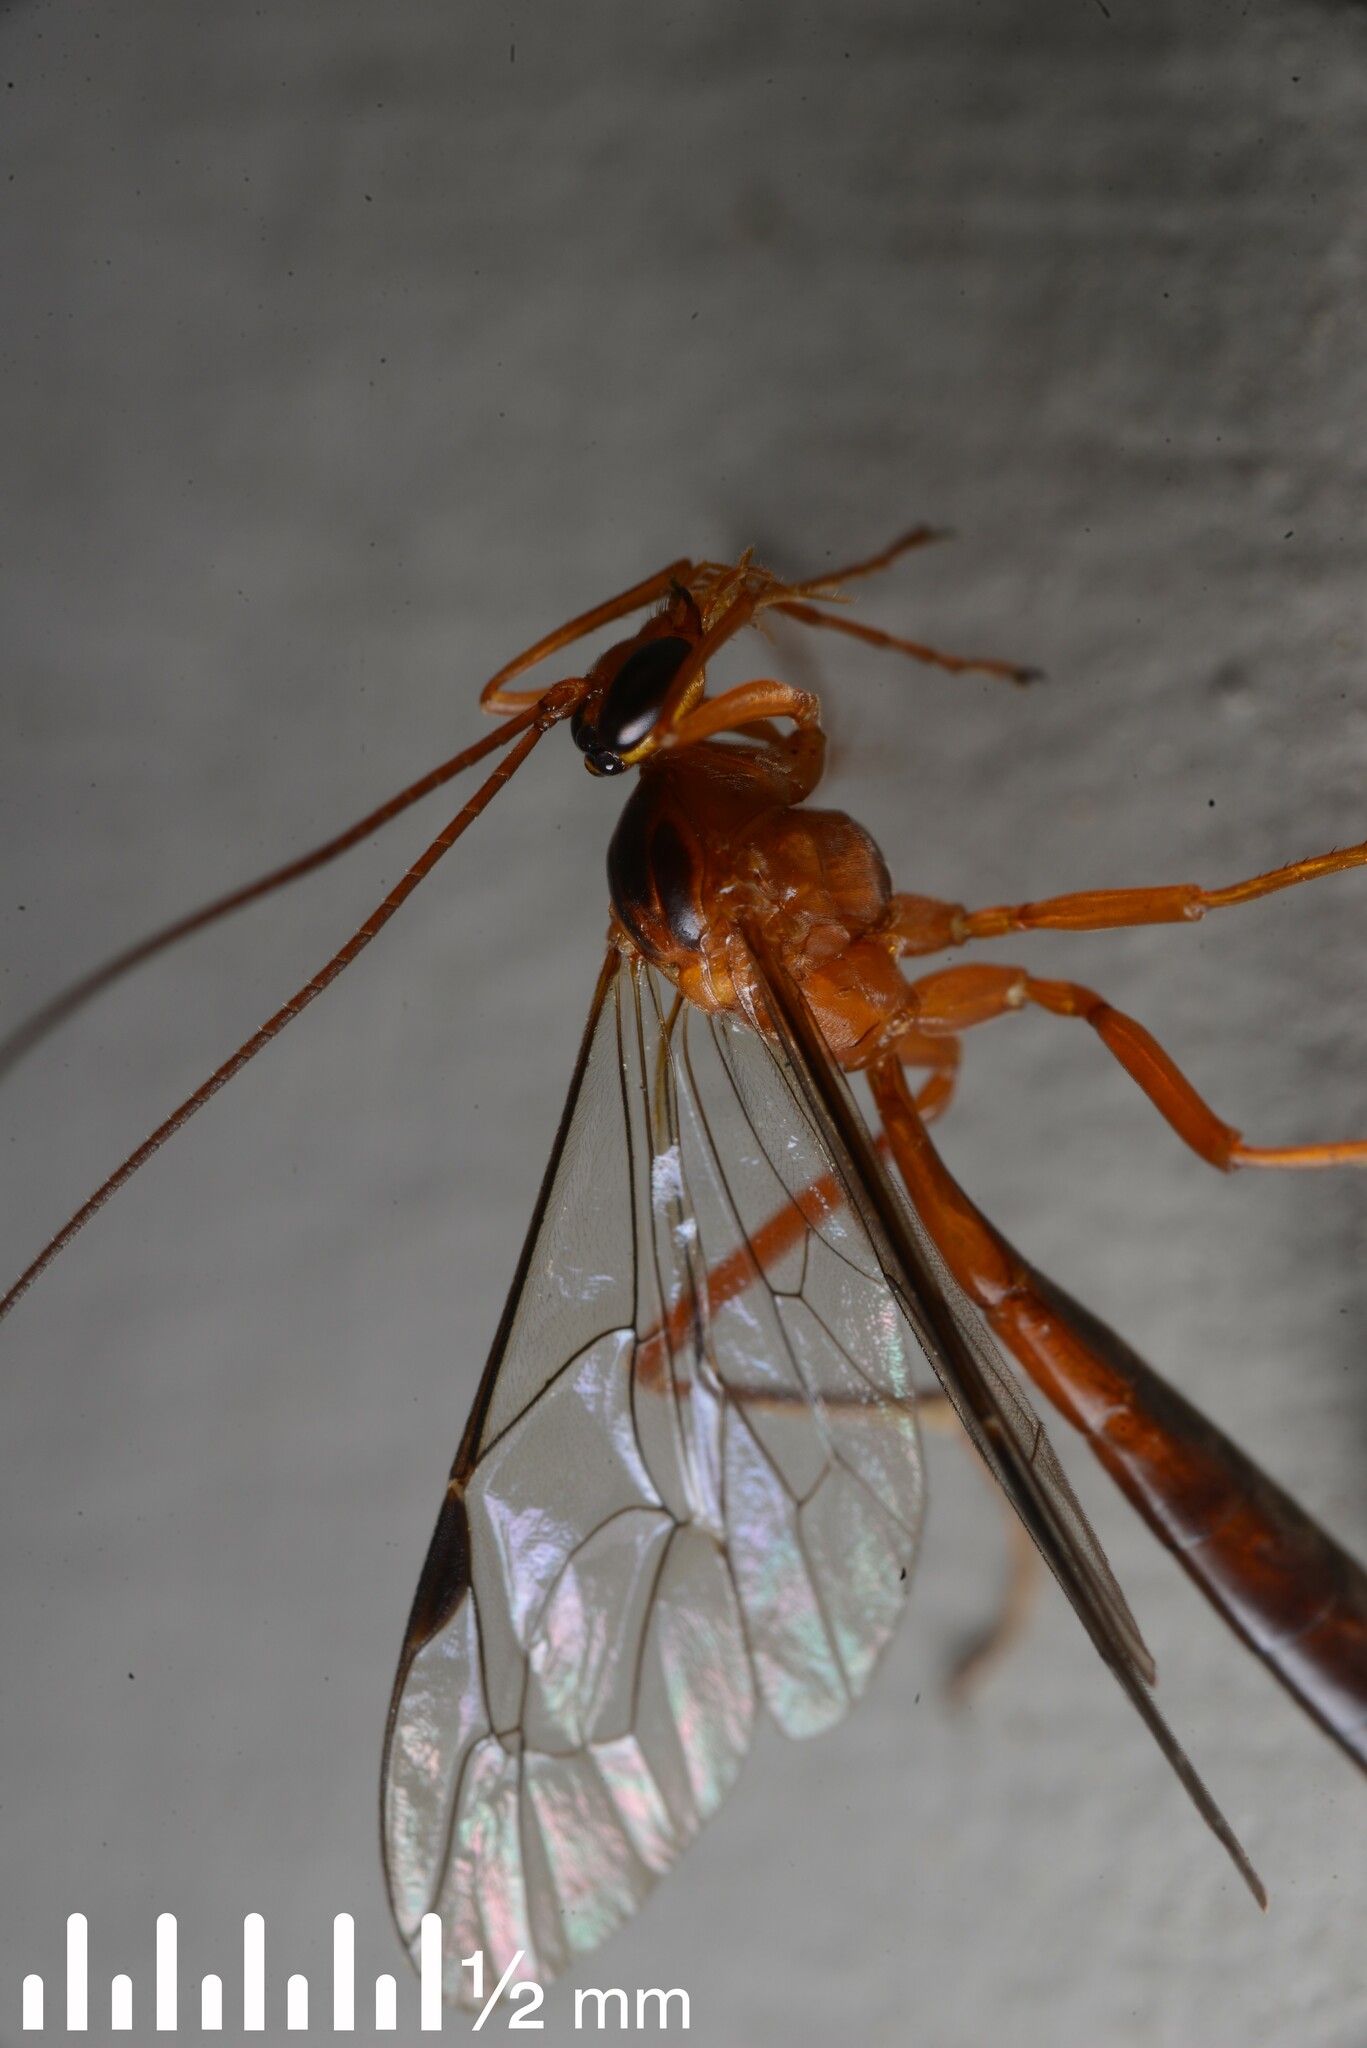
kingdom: Animalia
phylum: Arthropoda
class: Insecta
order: Hymenoptera
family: Ichneumonidae
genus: Netelia
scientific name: Netelia ephippiata
